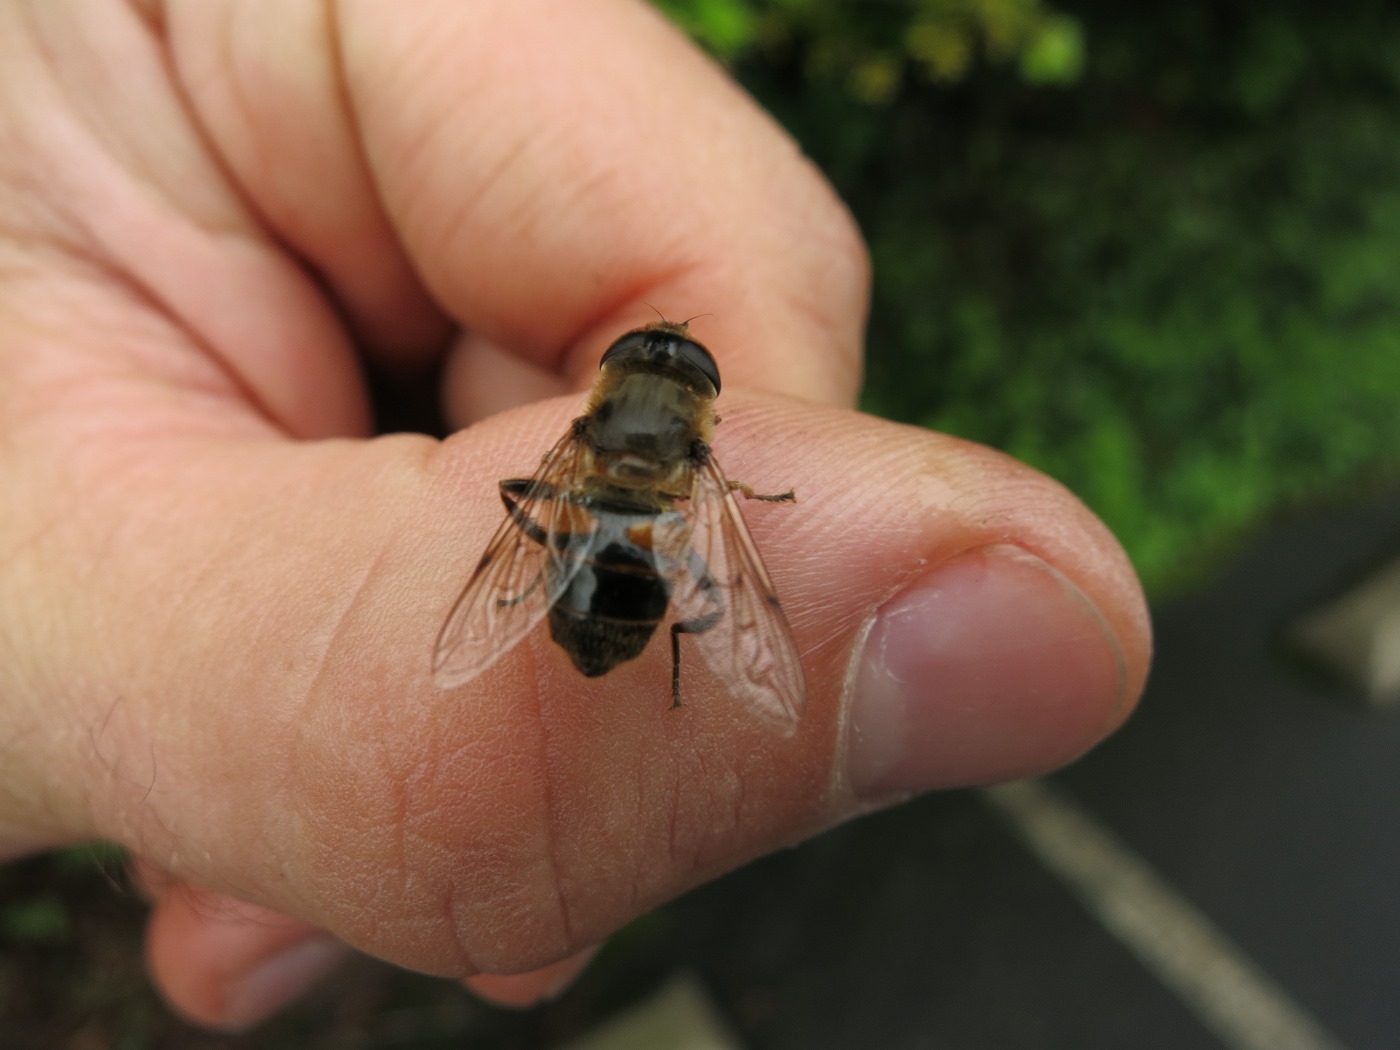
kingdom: Animalia
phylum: Arthropoda
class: Insecta
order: Diptera
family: Syrphidae
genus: Eristalis
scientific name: Eristalis tenax
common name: Drone fly
